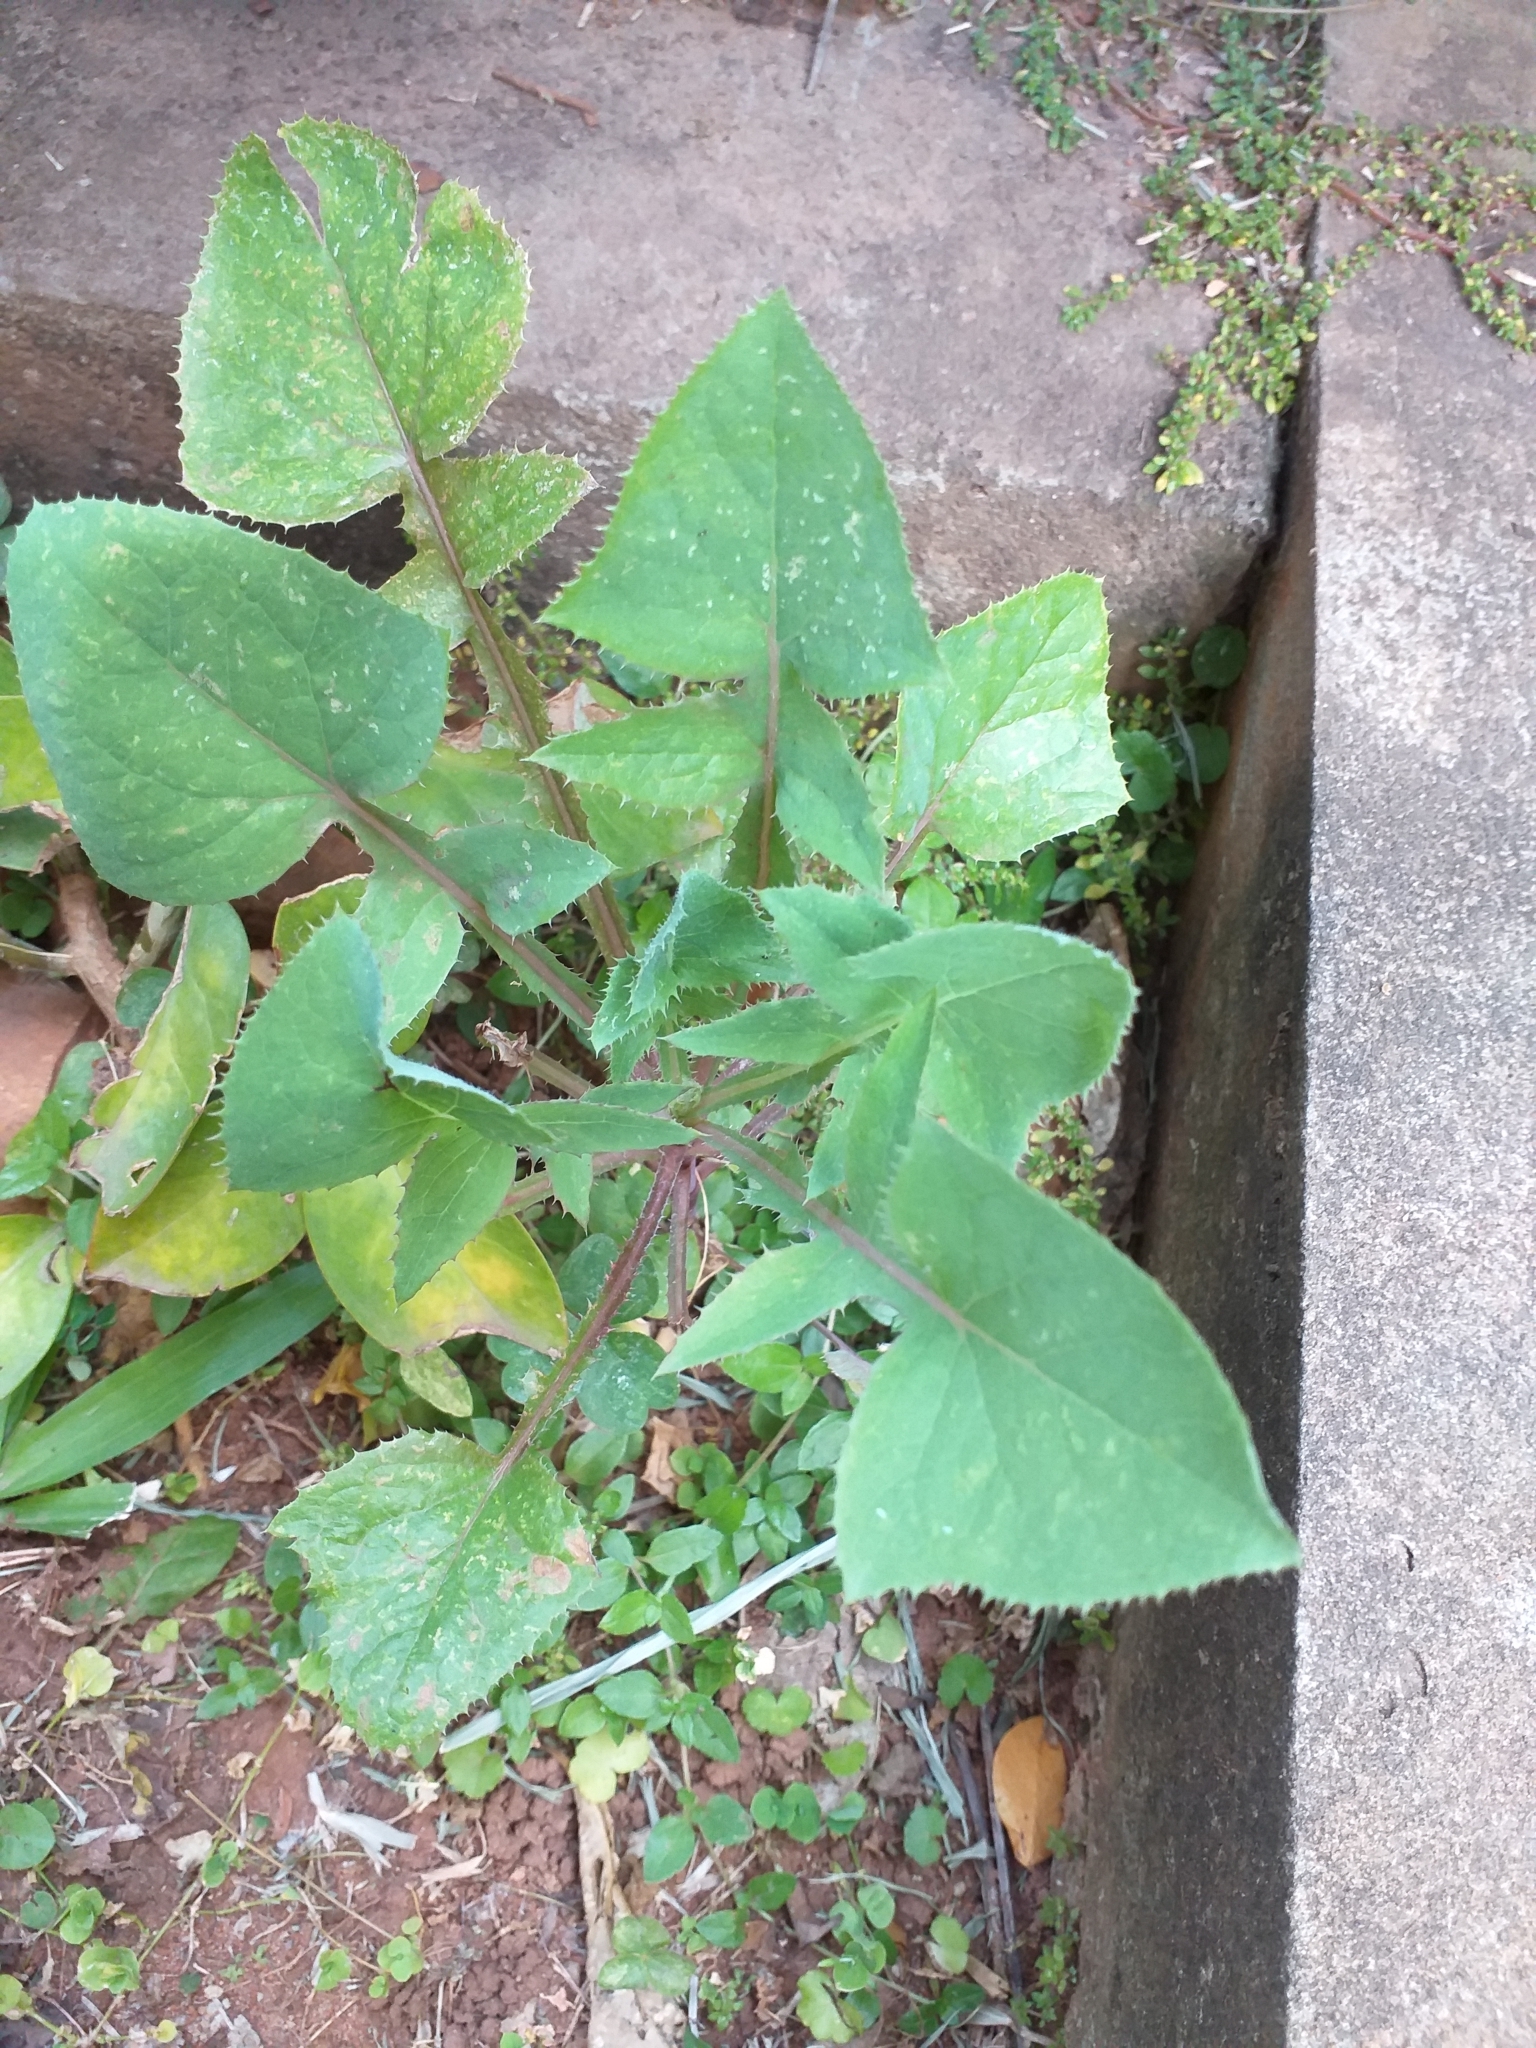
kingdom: Plantae
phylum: Tracheophyta
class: Magnoliopsida
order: Asterales
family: Asteraceae
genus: Sonchus
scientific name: Sonchus oleraceus
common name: Common sowthistle
